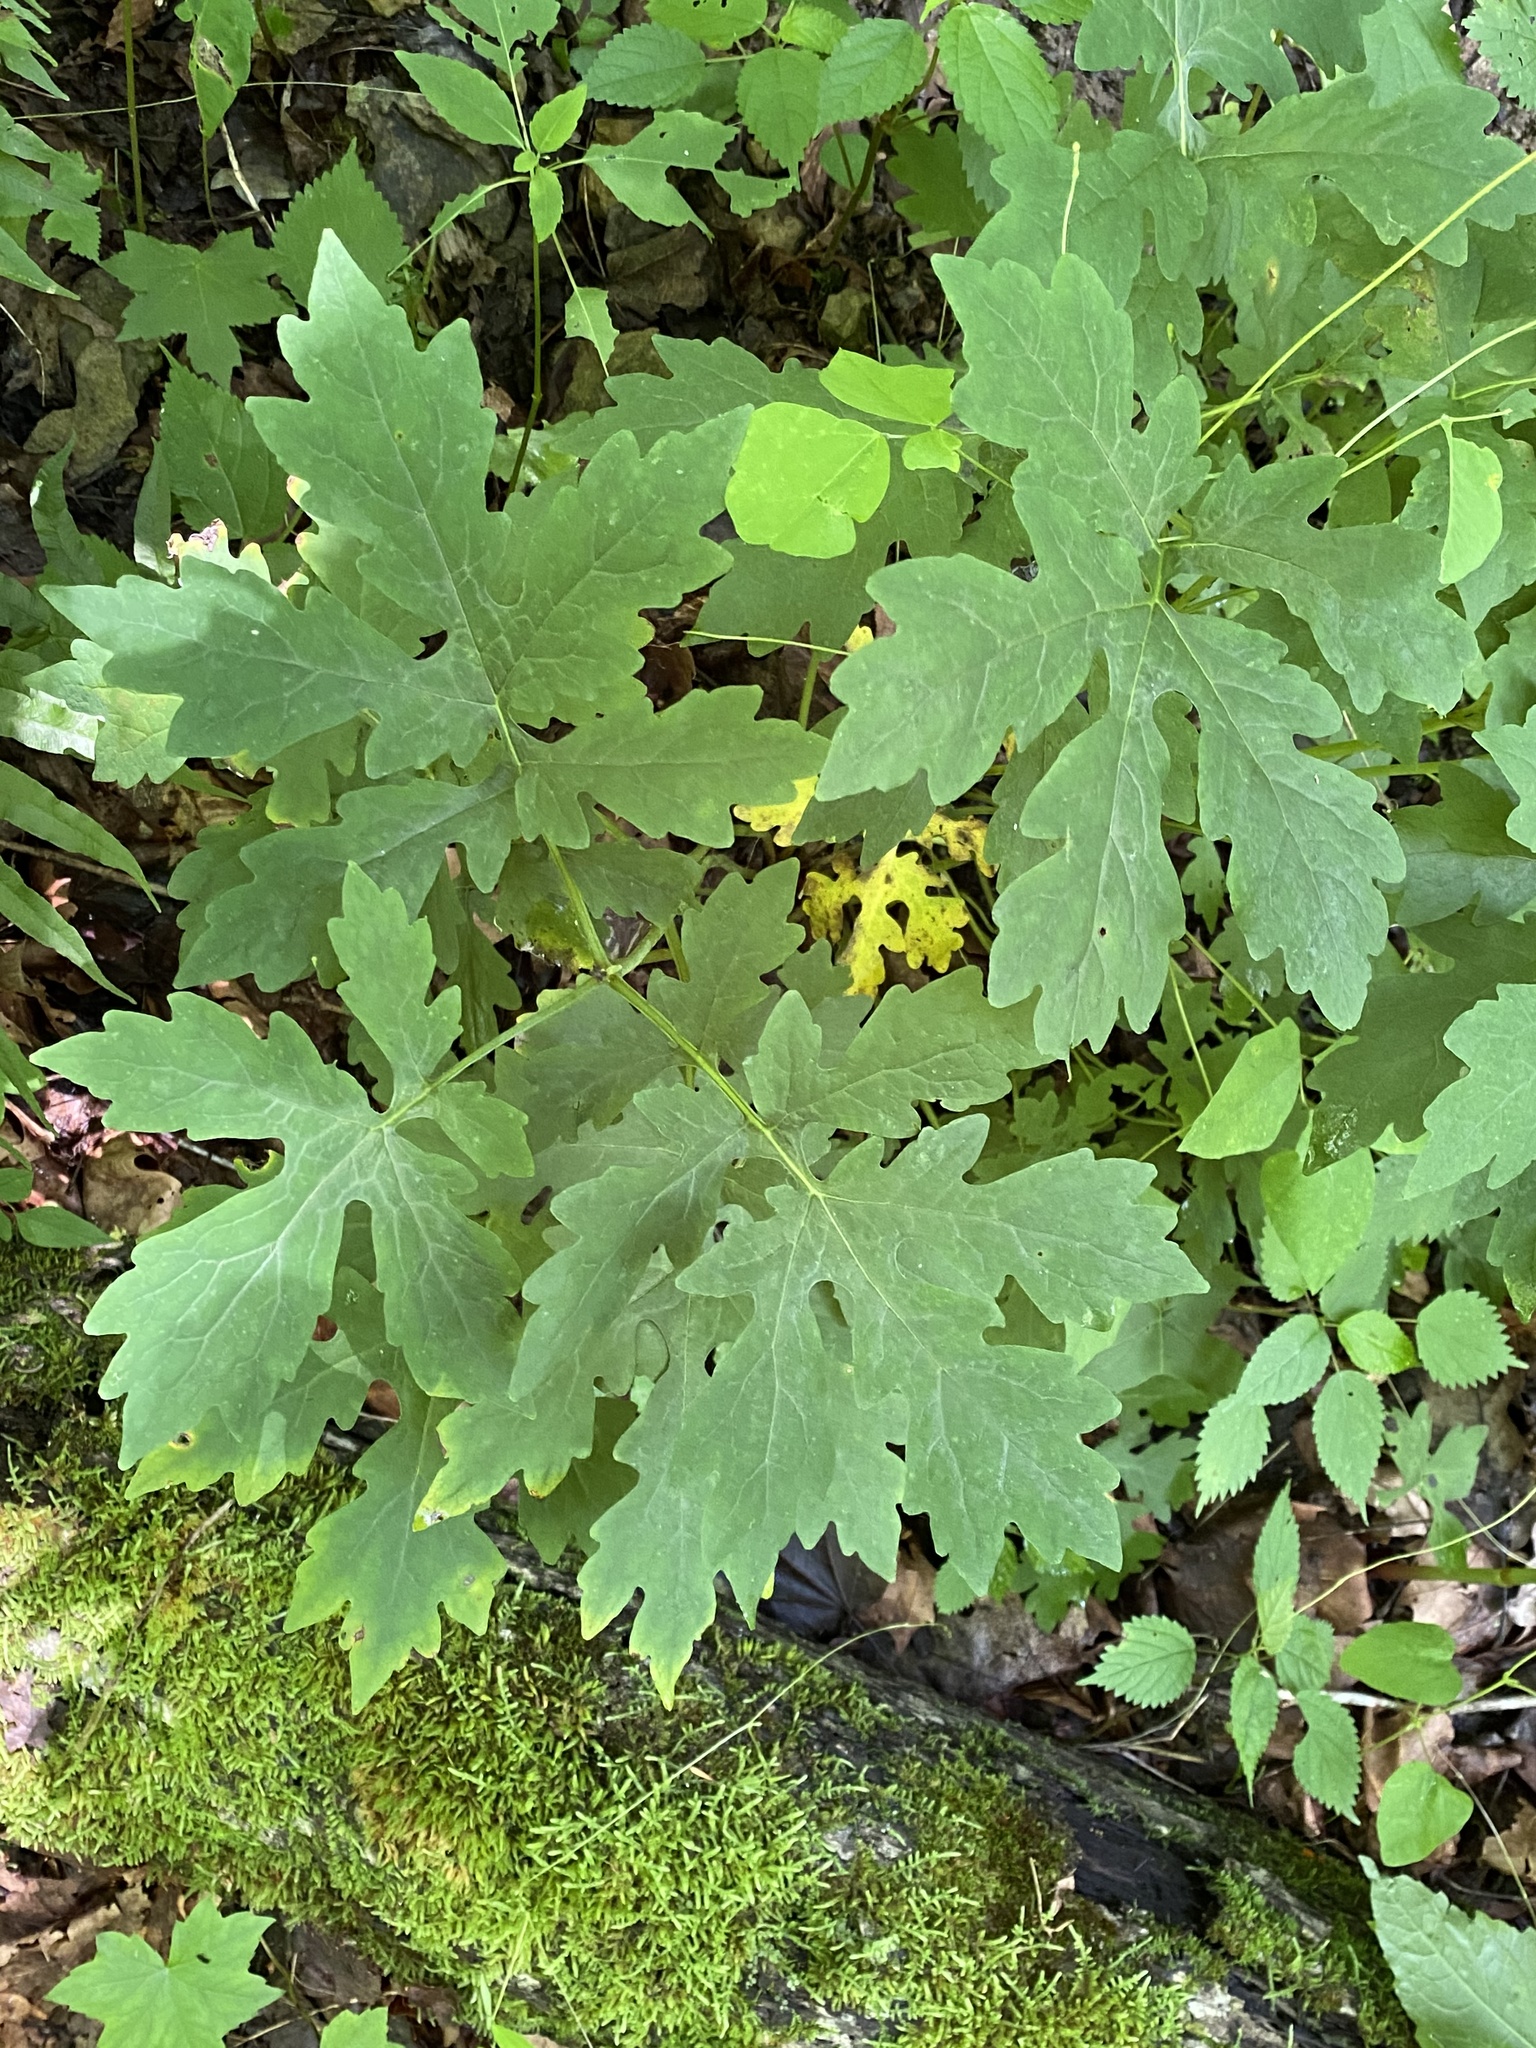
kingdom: Plantae
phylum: Tracheophyta
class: Magnoliopsida
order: Ranunculales
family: Papaveraceae
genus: Stylophorum
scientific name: Stylophorum diphyllum
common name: Celandine poppy
